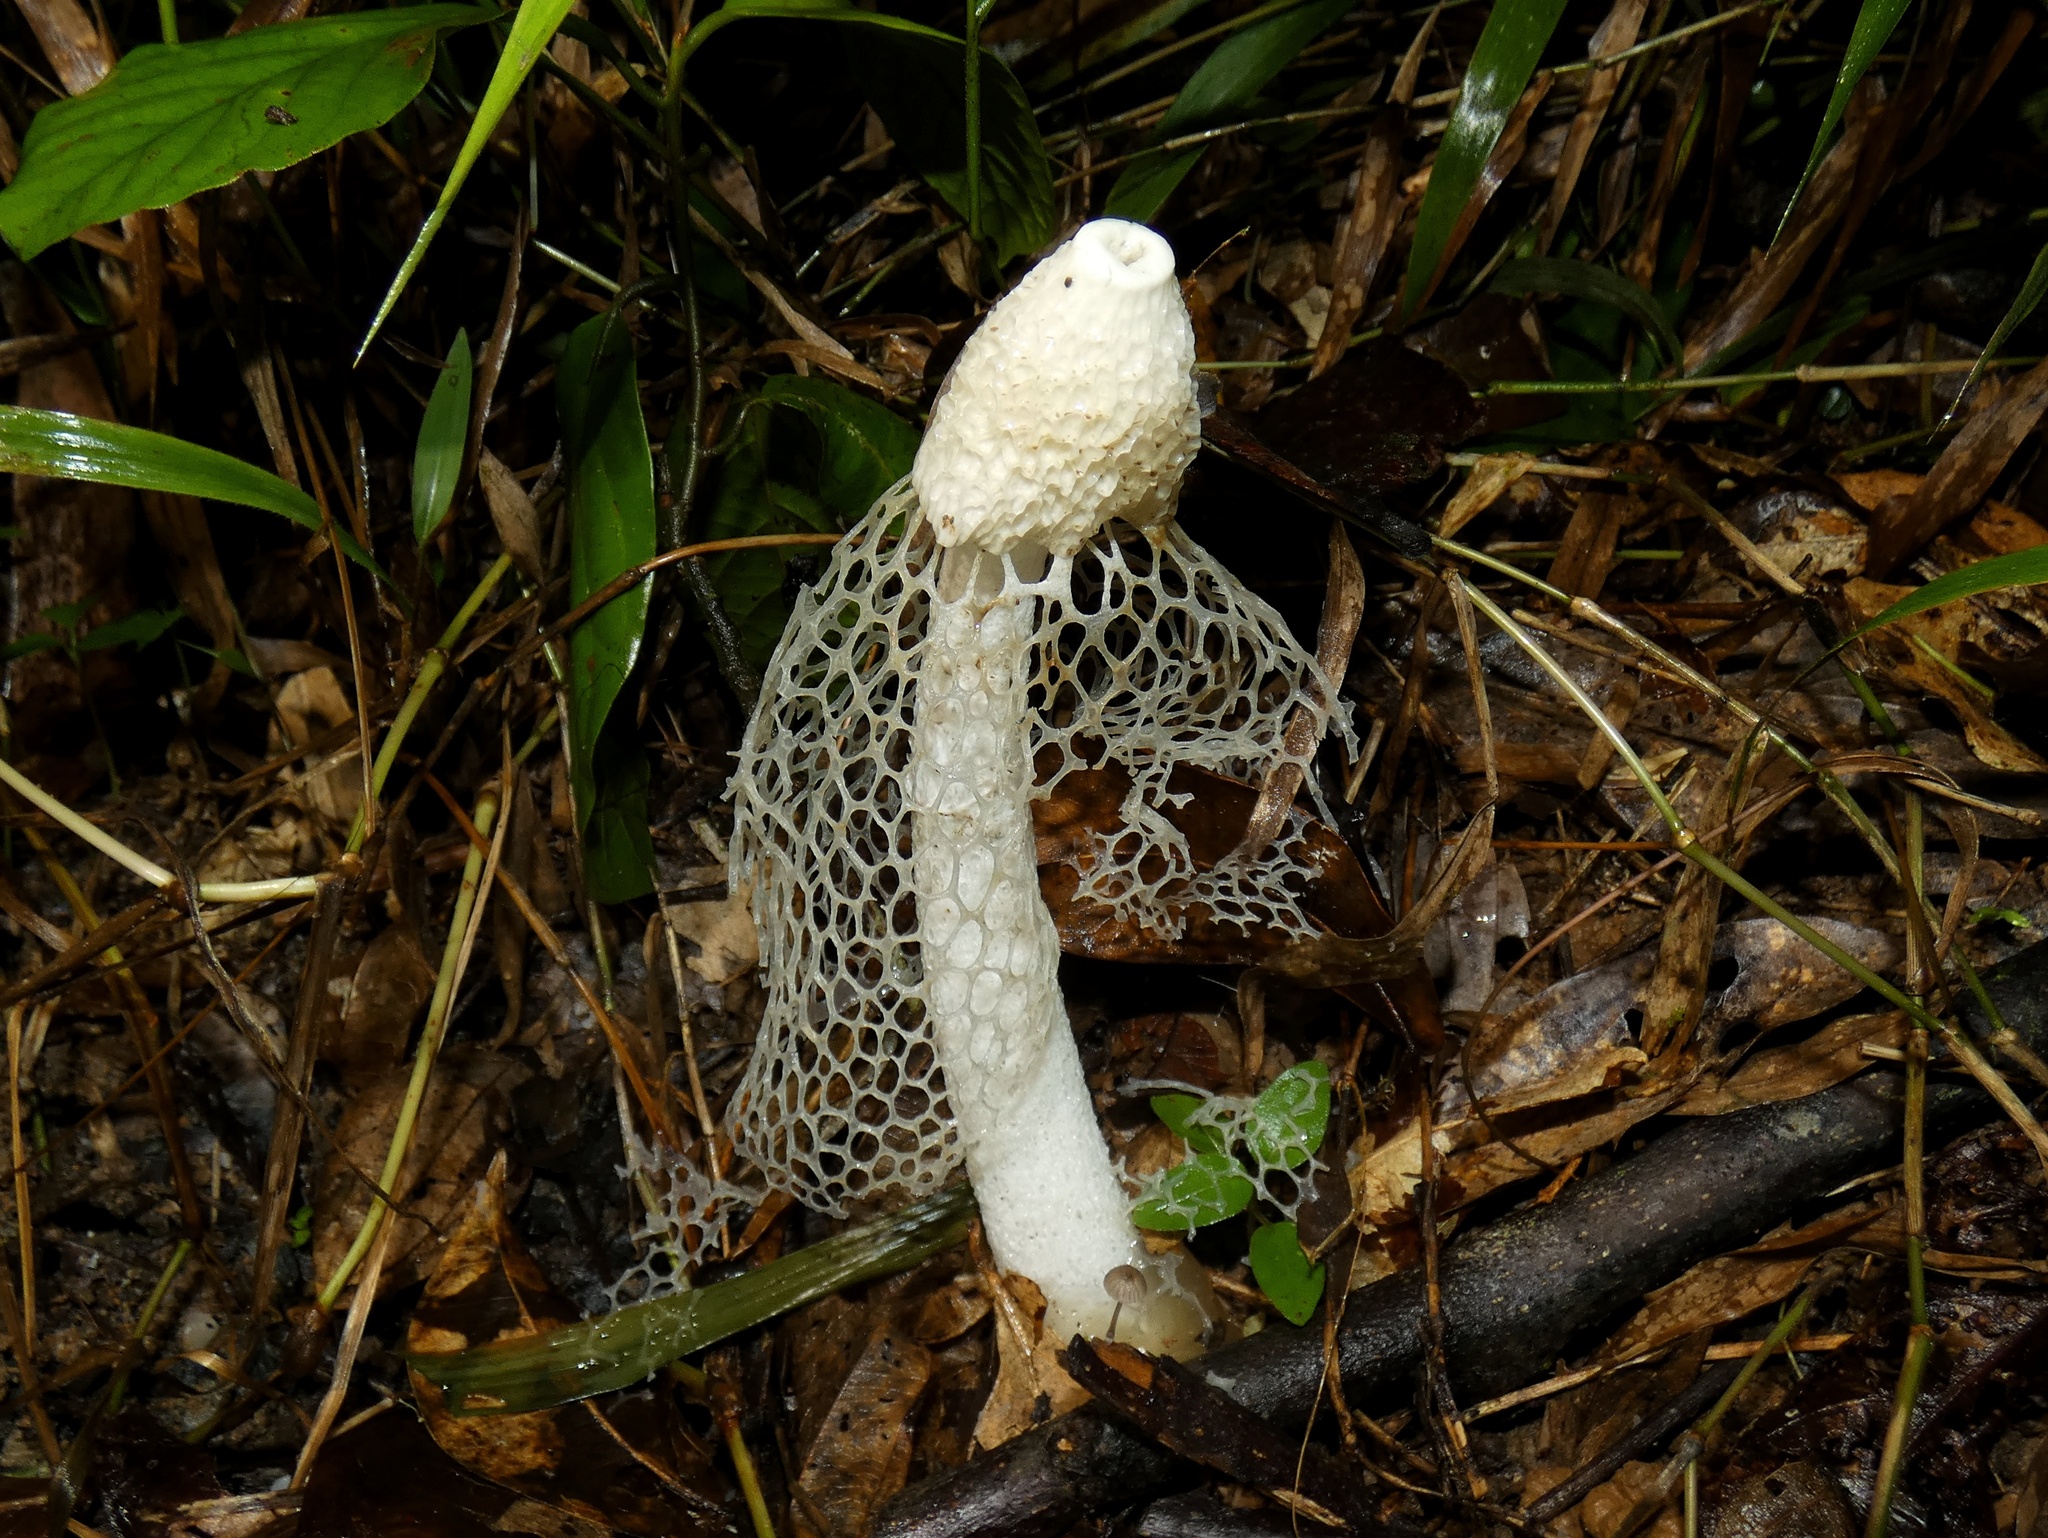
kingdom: Fungi
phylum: Basidiomycota
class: Agaricomycetes
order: Phallales
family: Phallaceae
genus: Phallus
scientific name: Phallus indusiatus
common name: Bridal veil stinkhorn
